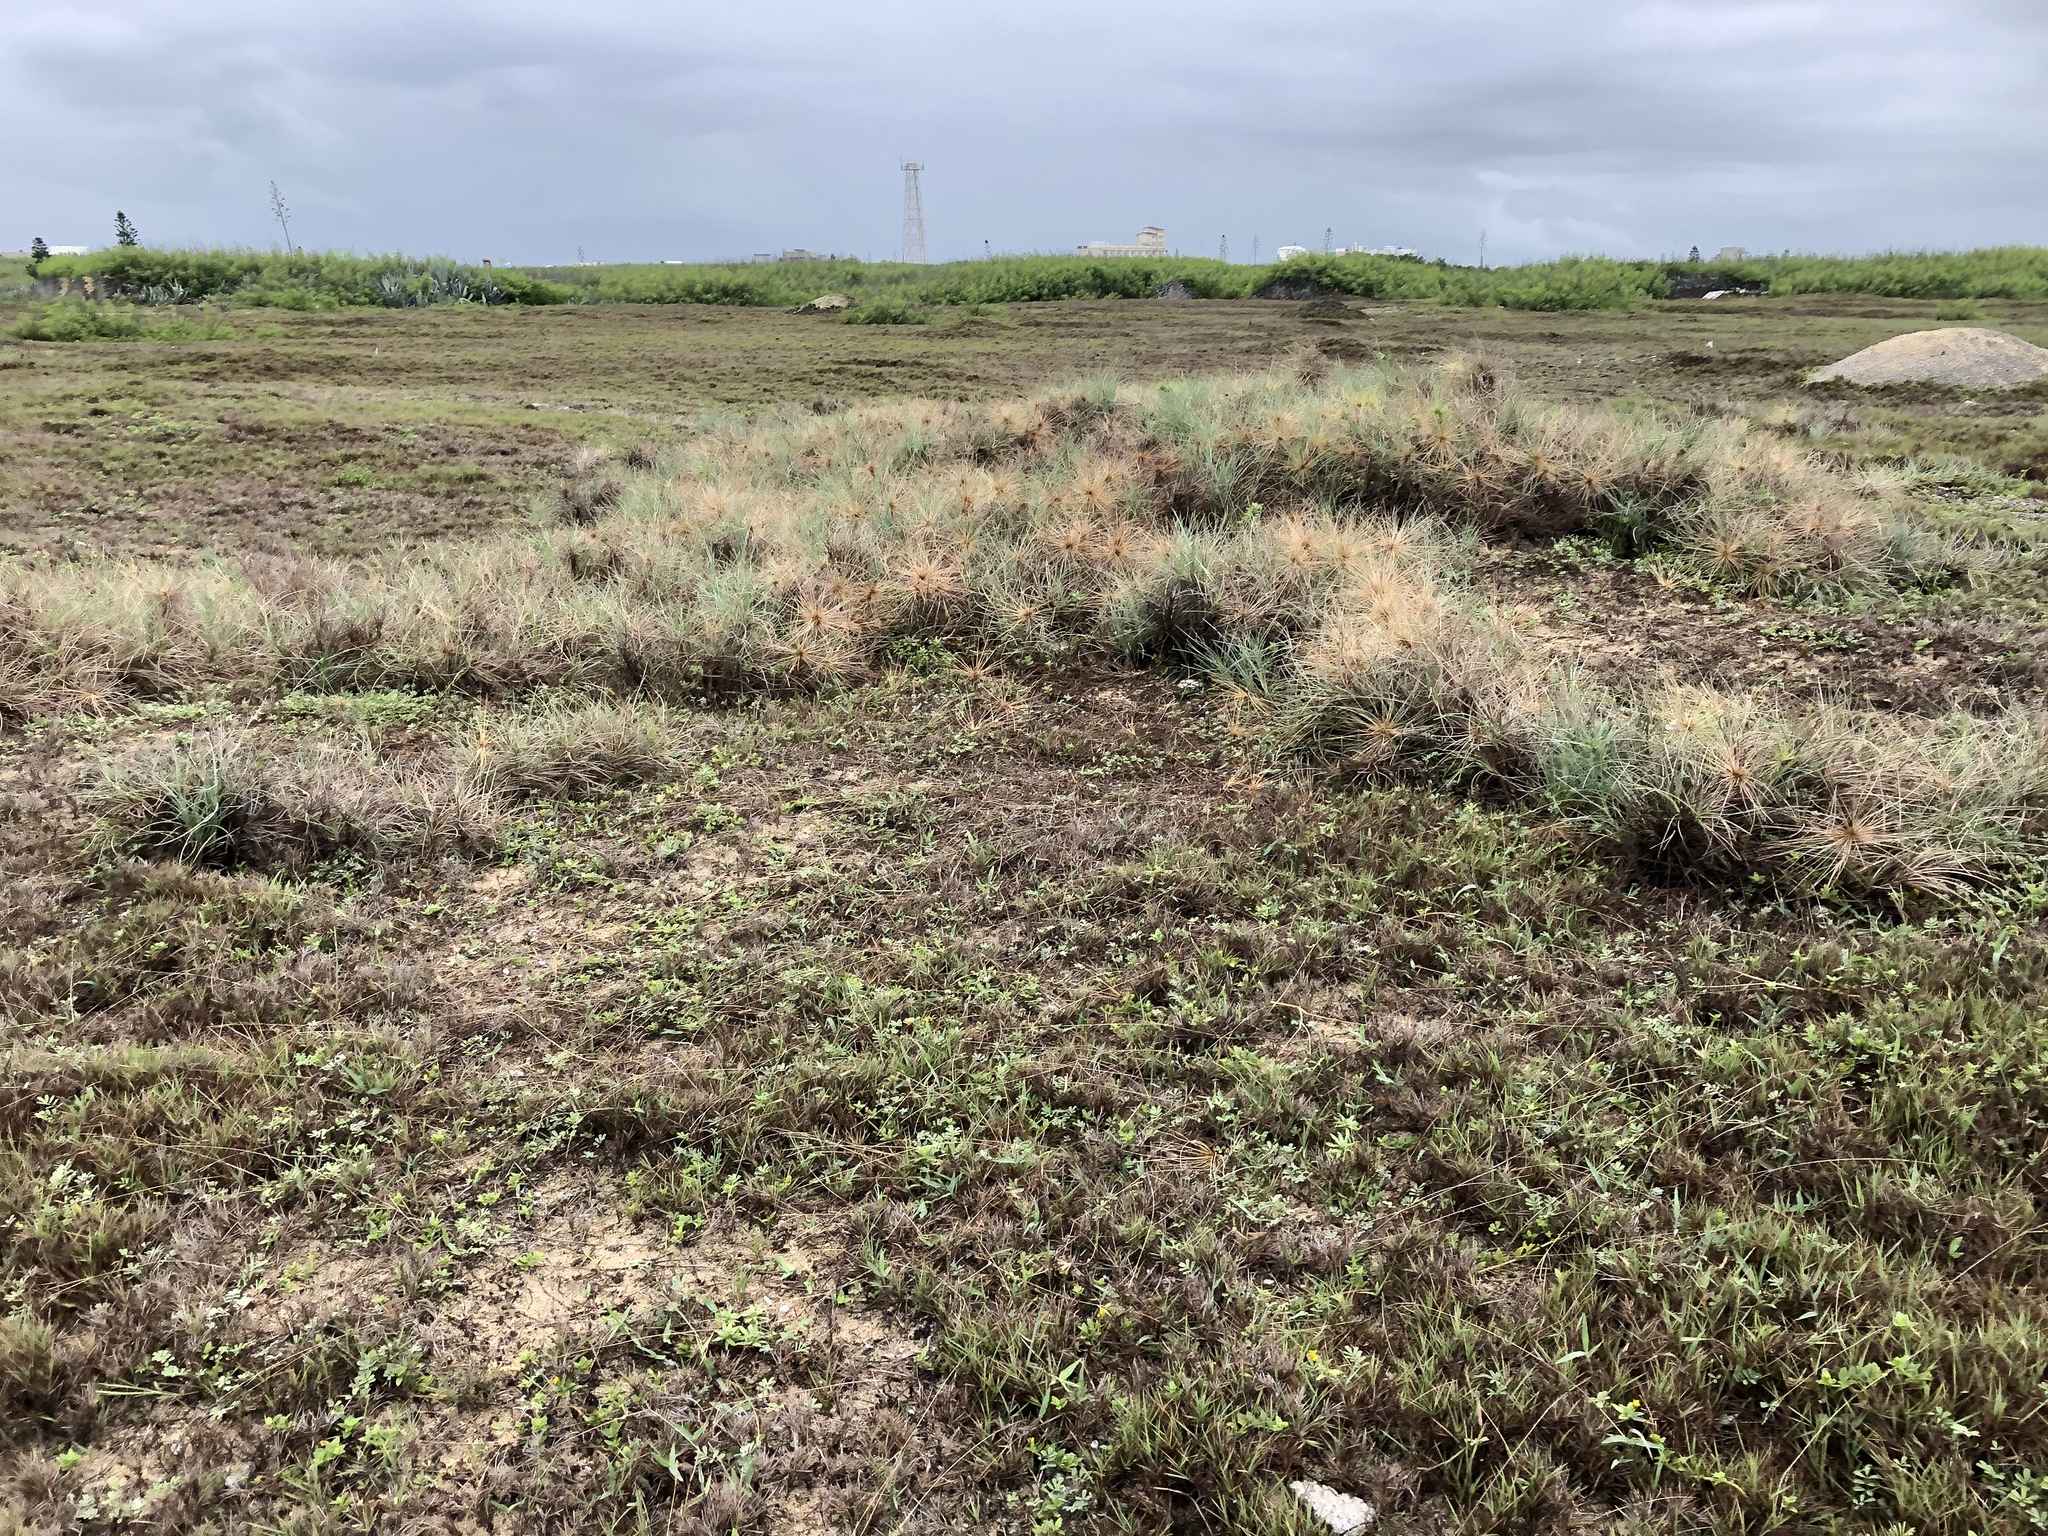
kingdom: Plantae
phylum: Tracheophyta
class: Liliopsida
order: Poales
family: Poaceae
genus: Spinifex
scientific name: Spinifex littoreus
